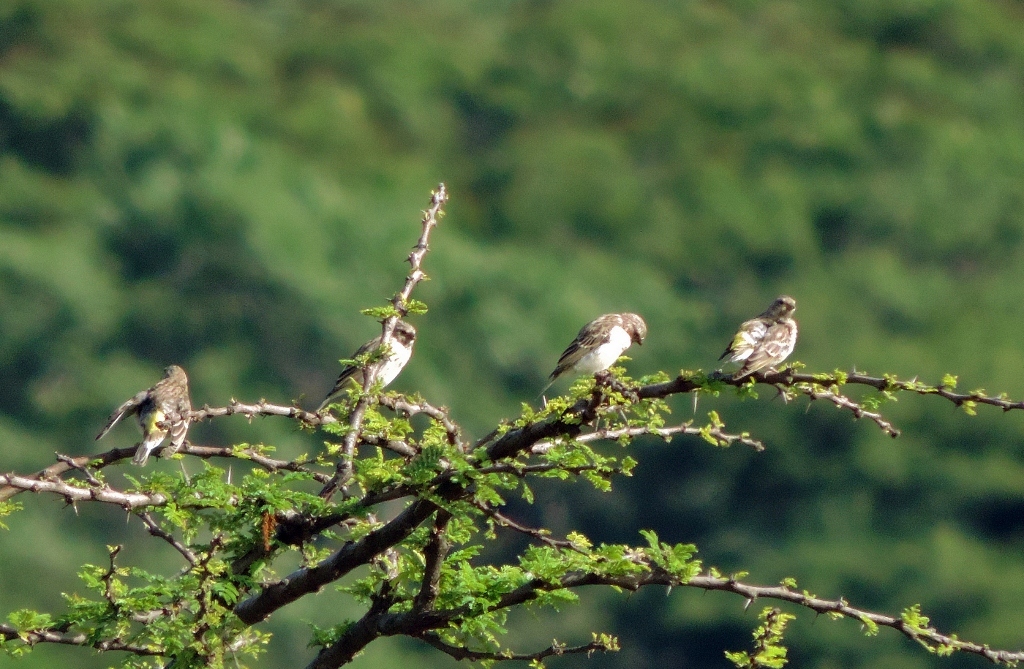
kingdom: Animalia
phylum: Chordata
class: Aves
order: Passeriformes
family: Fringillidae
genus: Crithagra
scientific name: Crithagra atrogularis
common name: Black-throated canary
